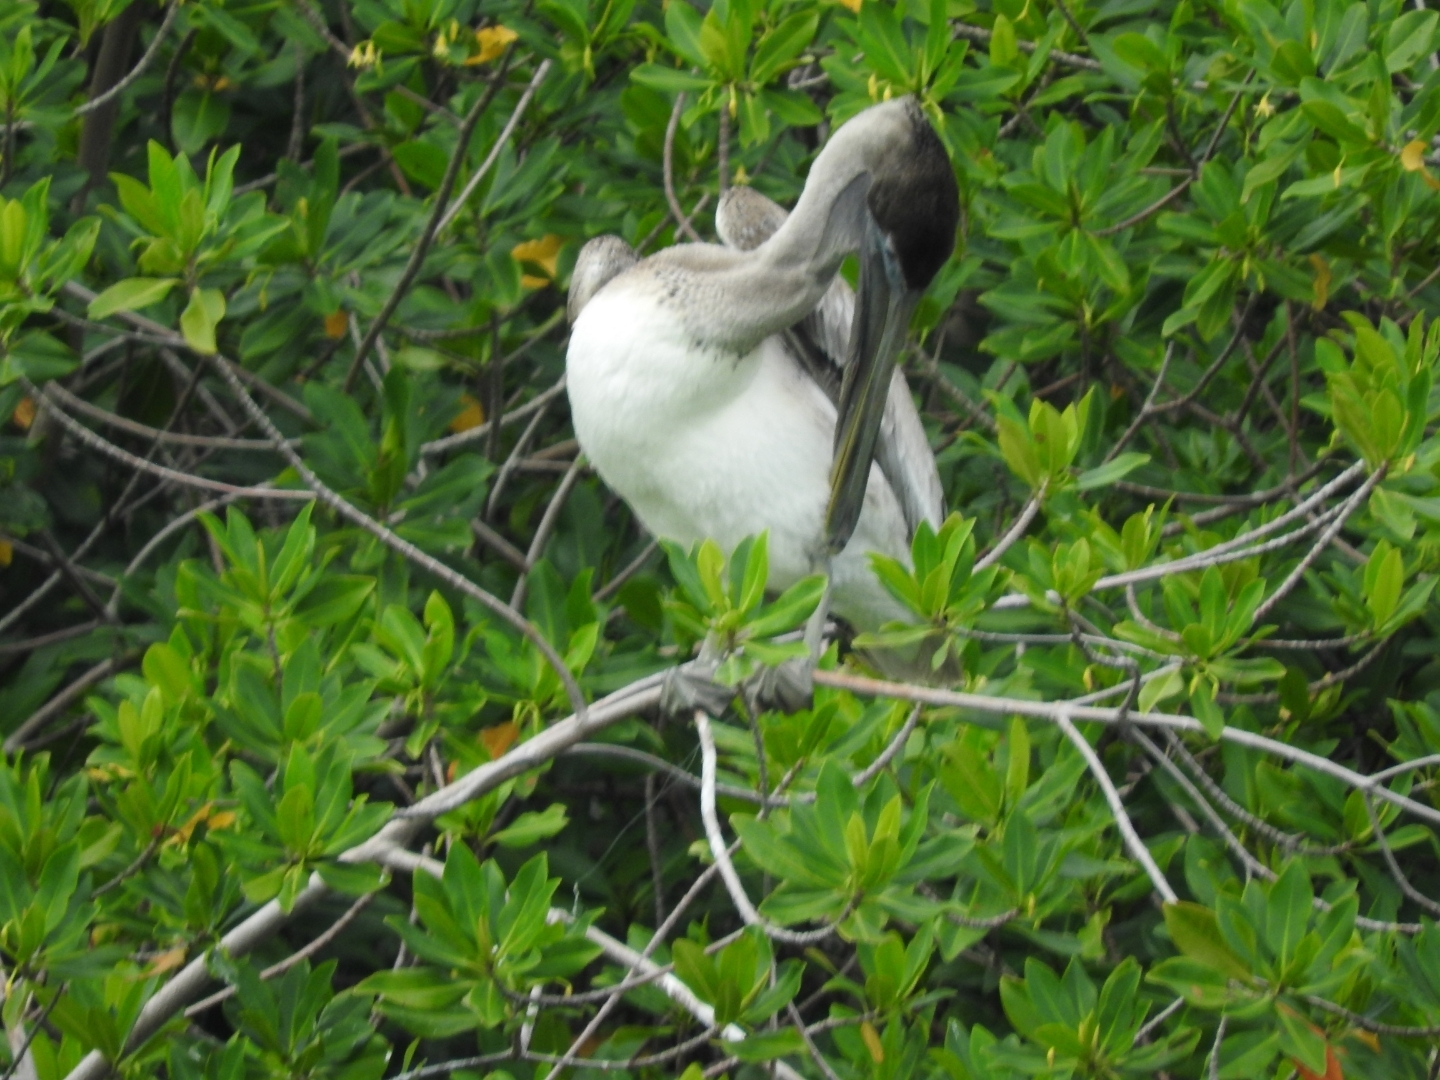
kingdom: Animalia
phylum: Chordata
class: Aves
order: Pelecaniformes
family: Pelecanidae
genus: Pelecanus
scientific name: Pelecanus occidentalis
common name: Brown pelican
